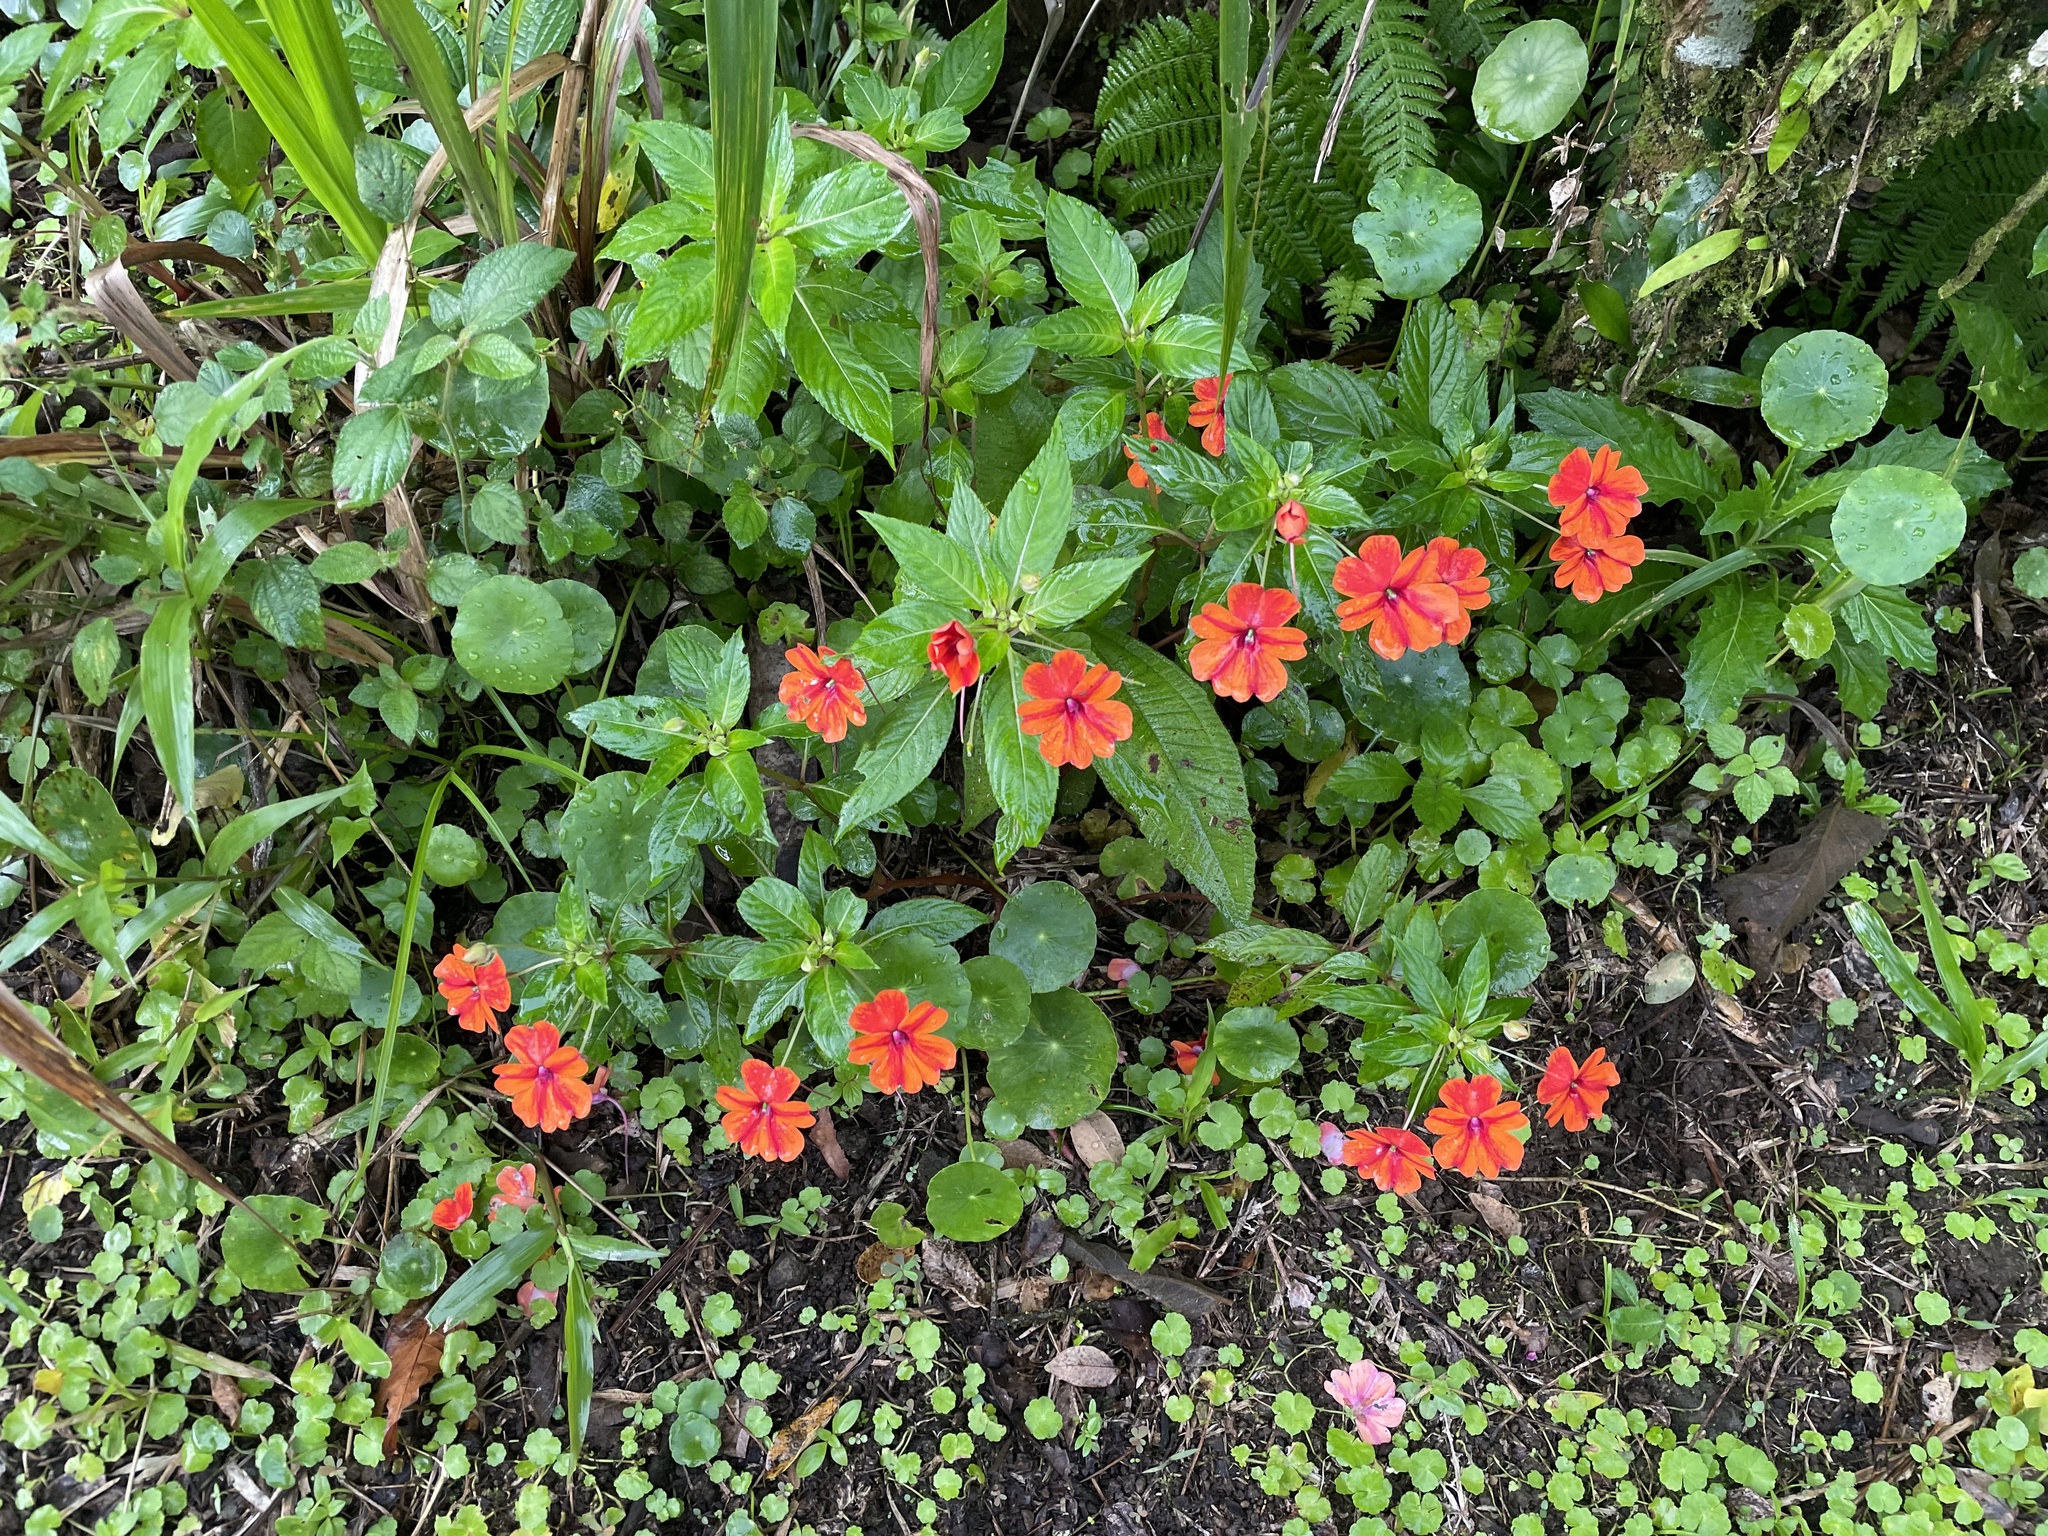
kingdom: Plantae
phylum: Tracheophyta
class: Magnoliopsida
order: Ericales
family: Balsaminaceae
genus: Impatiens
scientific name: Impatiens hawkeri
